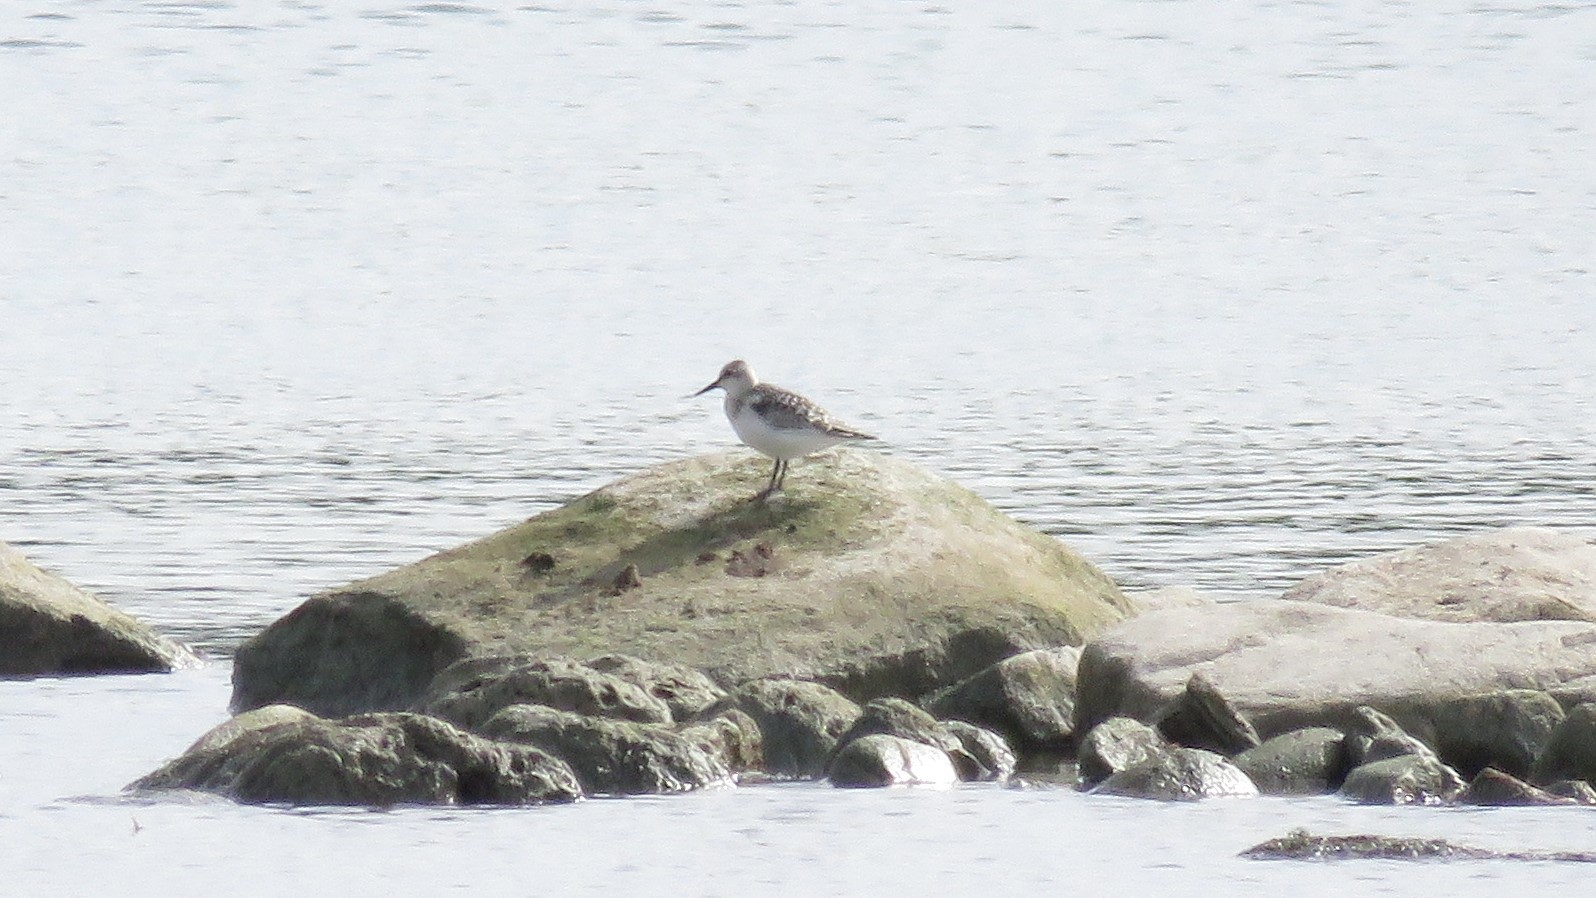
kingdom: Animalia
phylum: Chordata
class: Aves
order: Charadriiformes
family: Scolopacidae
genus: Calidris
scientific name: Calidris alba
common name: Sanderling
